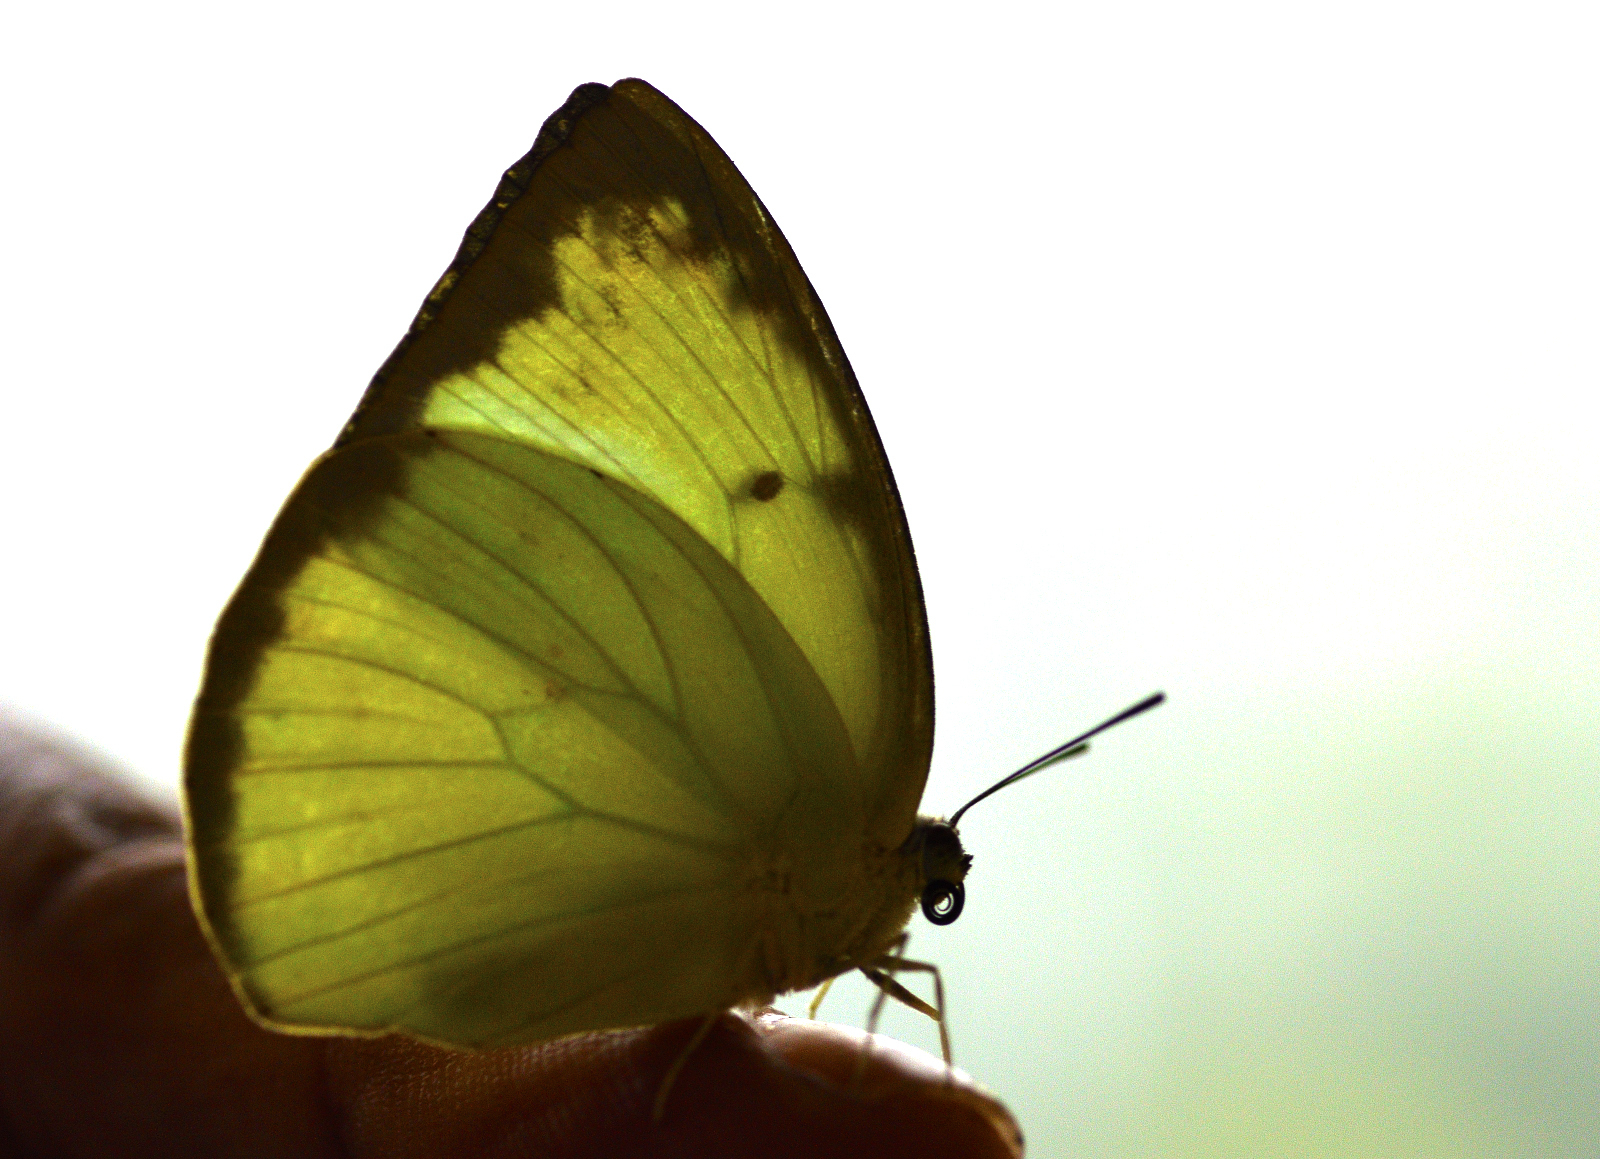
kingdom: Animalia
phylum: Arthropoda
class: Insecta
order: Lepidoptera
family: Pieridae
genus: Catopsilia
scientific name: Catopsilia pomona
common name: Common emigrant
